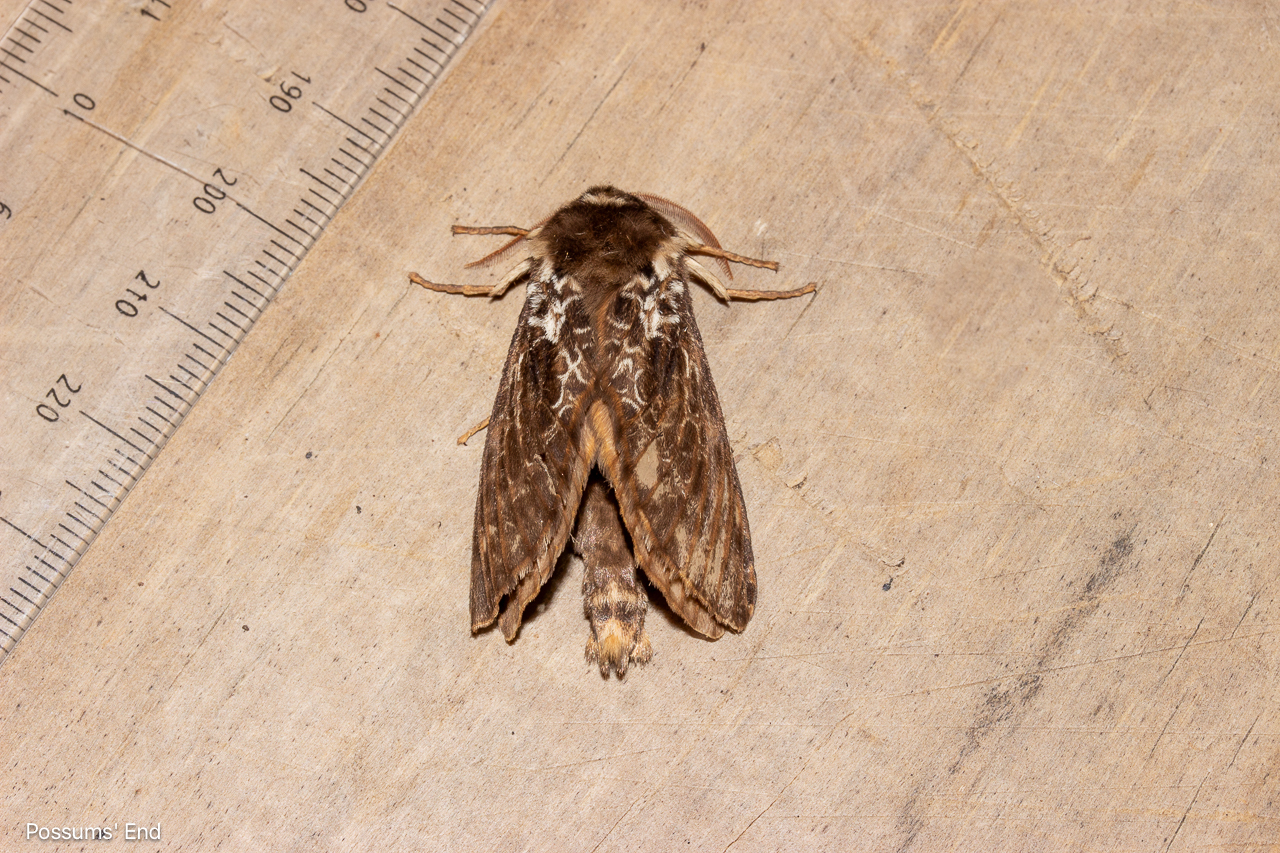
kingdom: Animalia
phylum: Arthropoda
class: Insecta
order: Lepidoptera
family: Hepialidae
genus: Aoraia
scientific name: Aoraia rufivena
